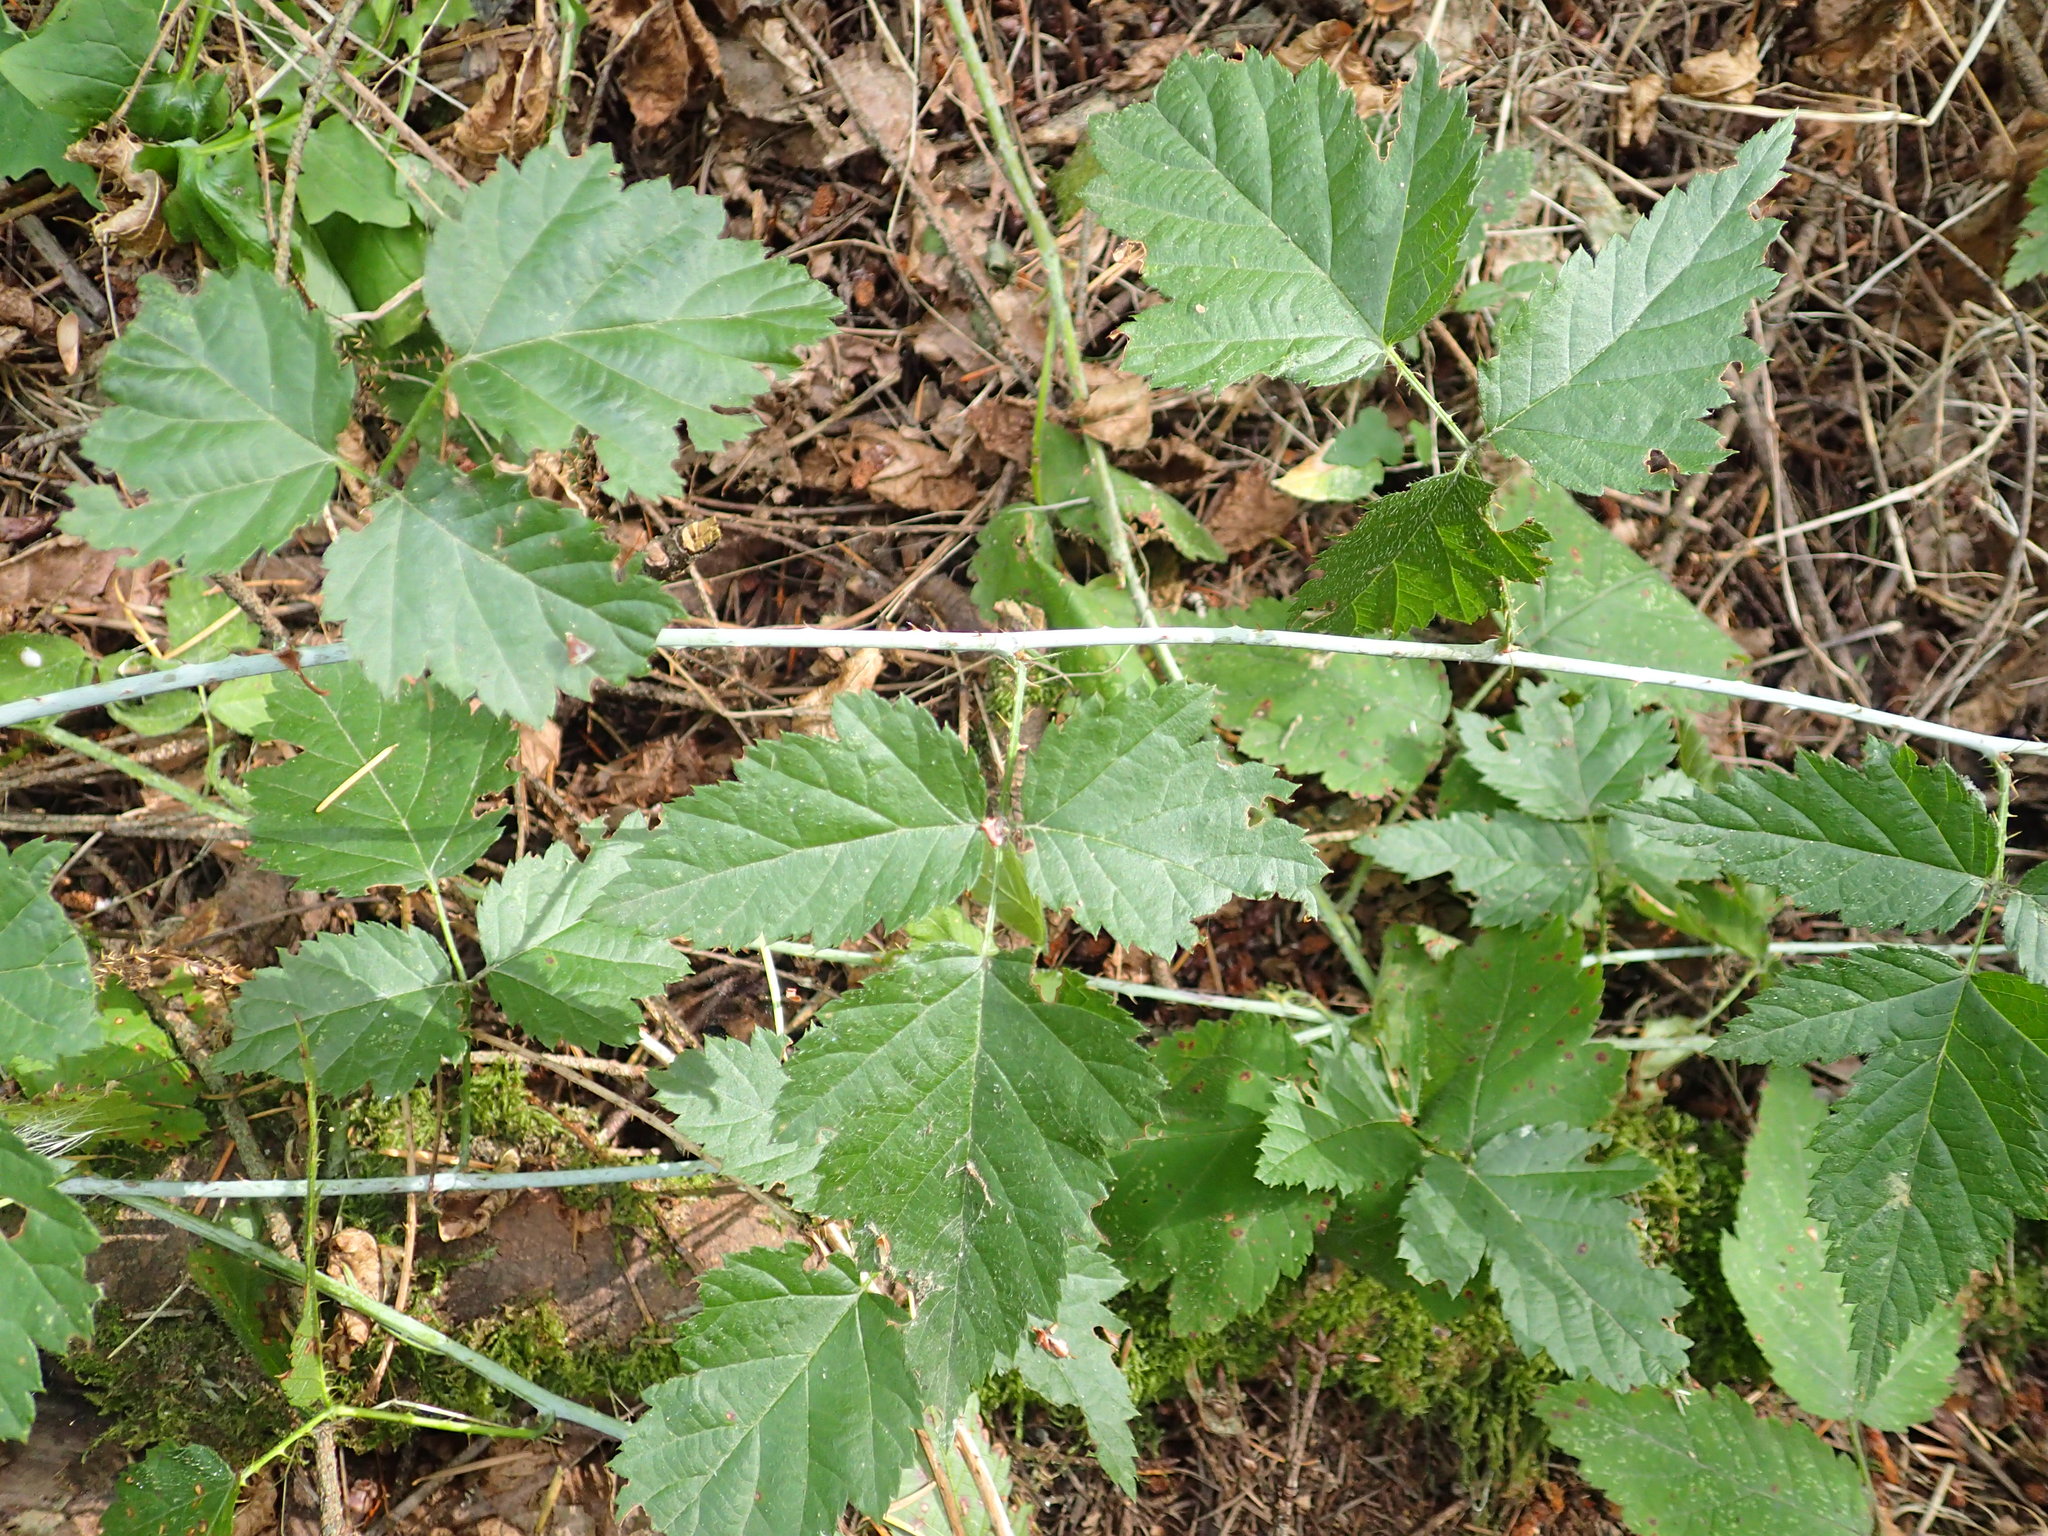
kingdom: Plantae
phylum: Tracheophyta
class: Magnoliopsida
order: Rosales
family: Rosaceae
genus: Rubus
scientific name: Rubus ursinus
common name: Pacific blackberry
